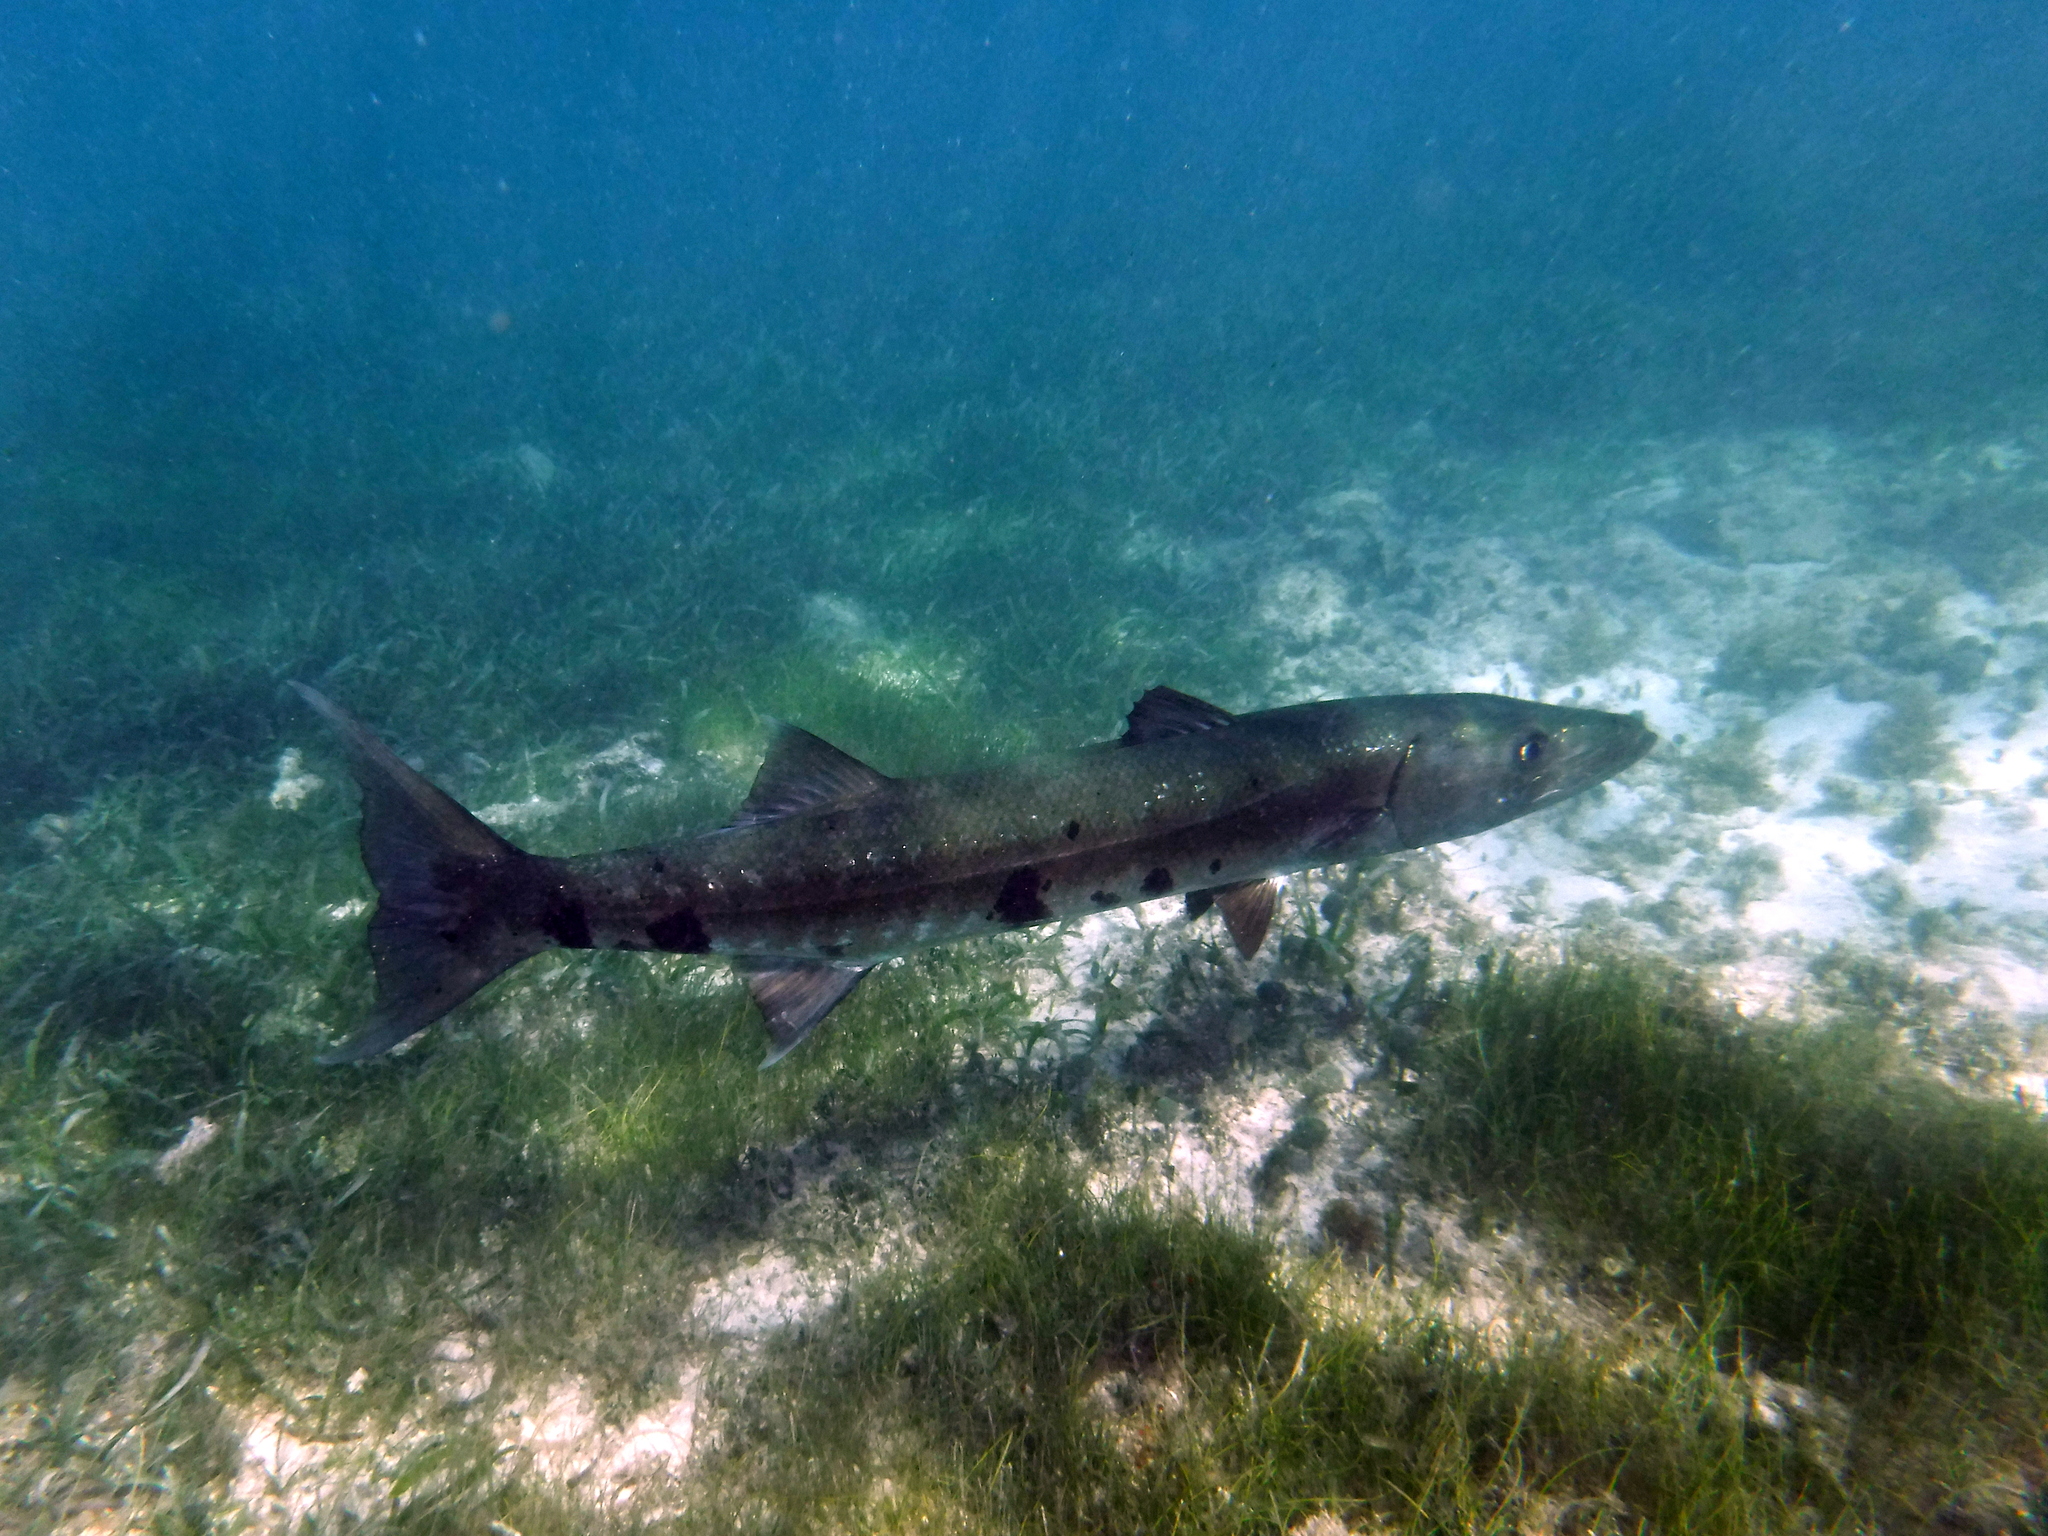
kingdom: Animalia
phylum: Chordata
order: Perciformes
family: Sphyraenidae
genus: Sphyraena
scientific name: Sphyraena barracuda
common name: Great barracuda
